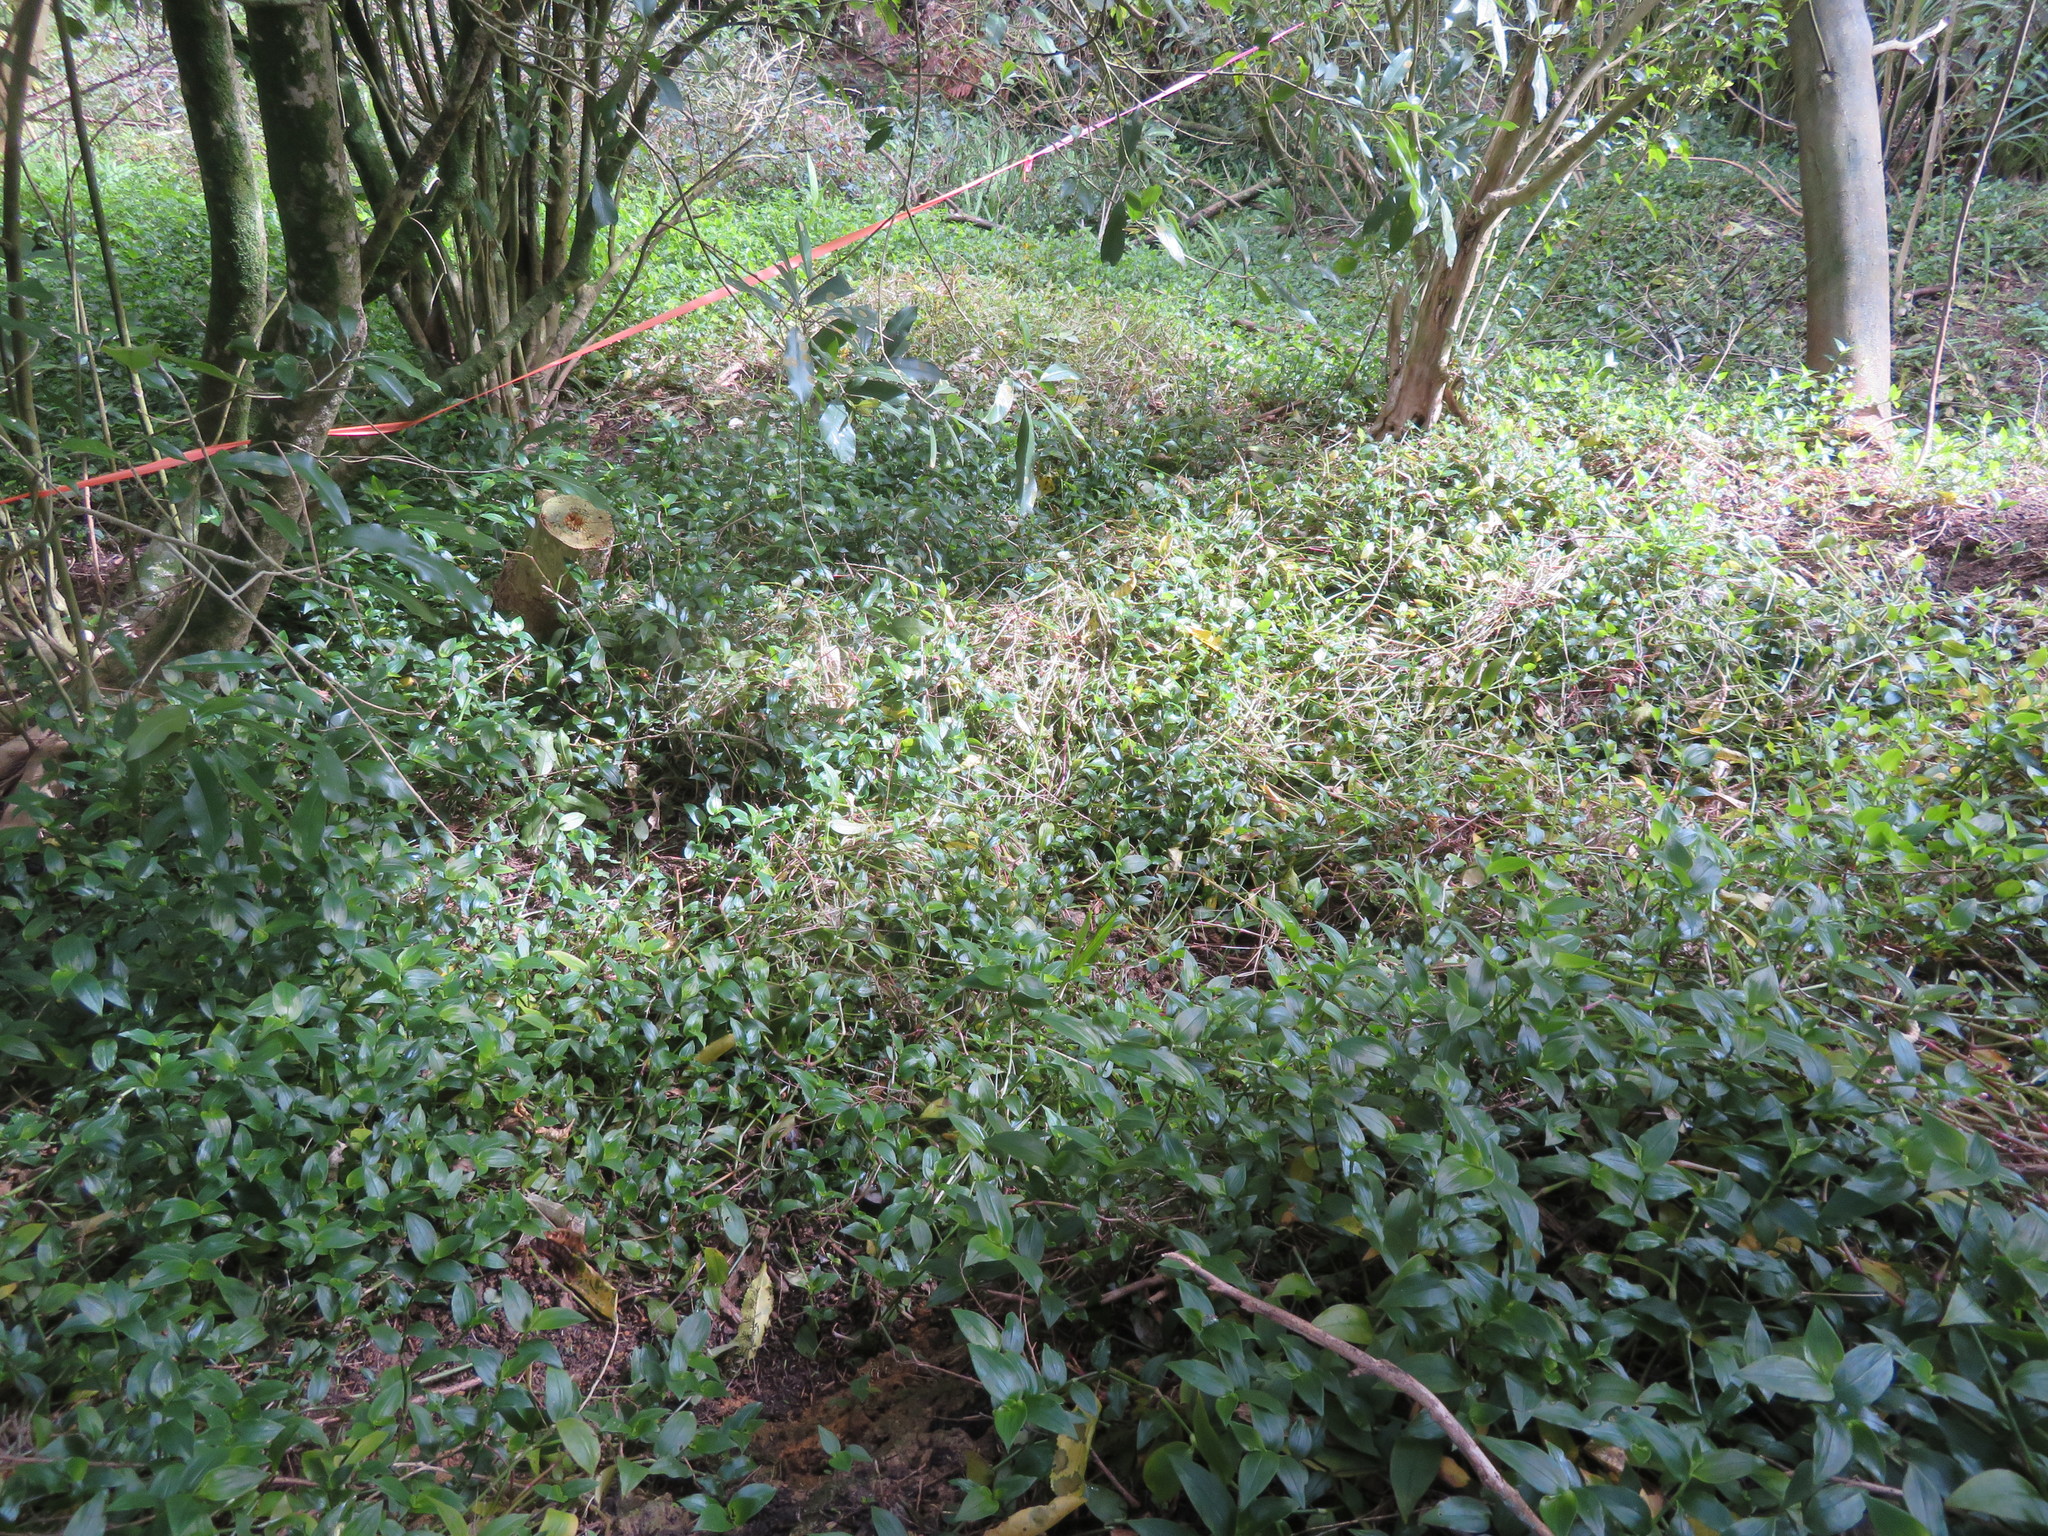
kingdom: Plantae
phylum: Tracheophyta
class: Liliopsida
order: Commelinales
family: Commelinaceae
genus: Tradescantia
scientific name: Tradescantia fluminensis
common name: Wandering-jew
